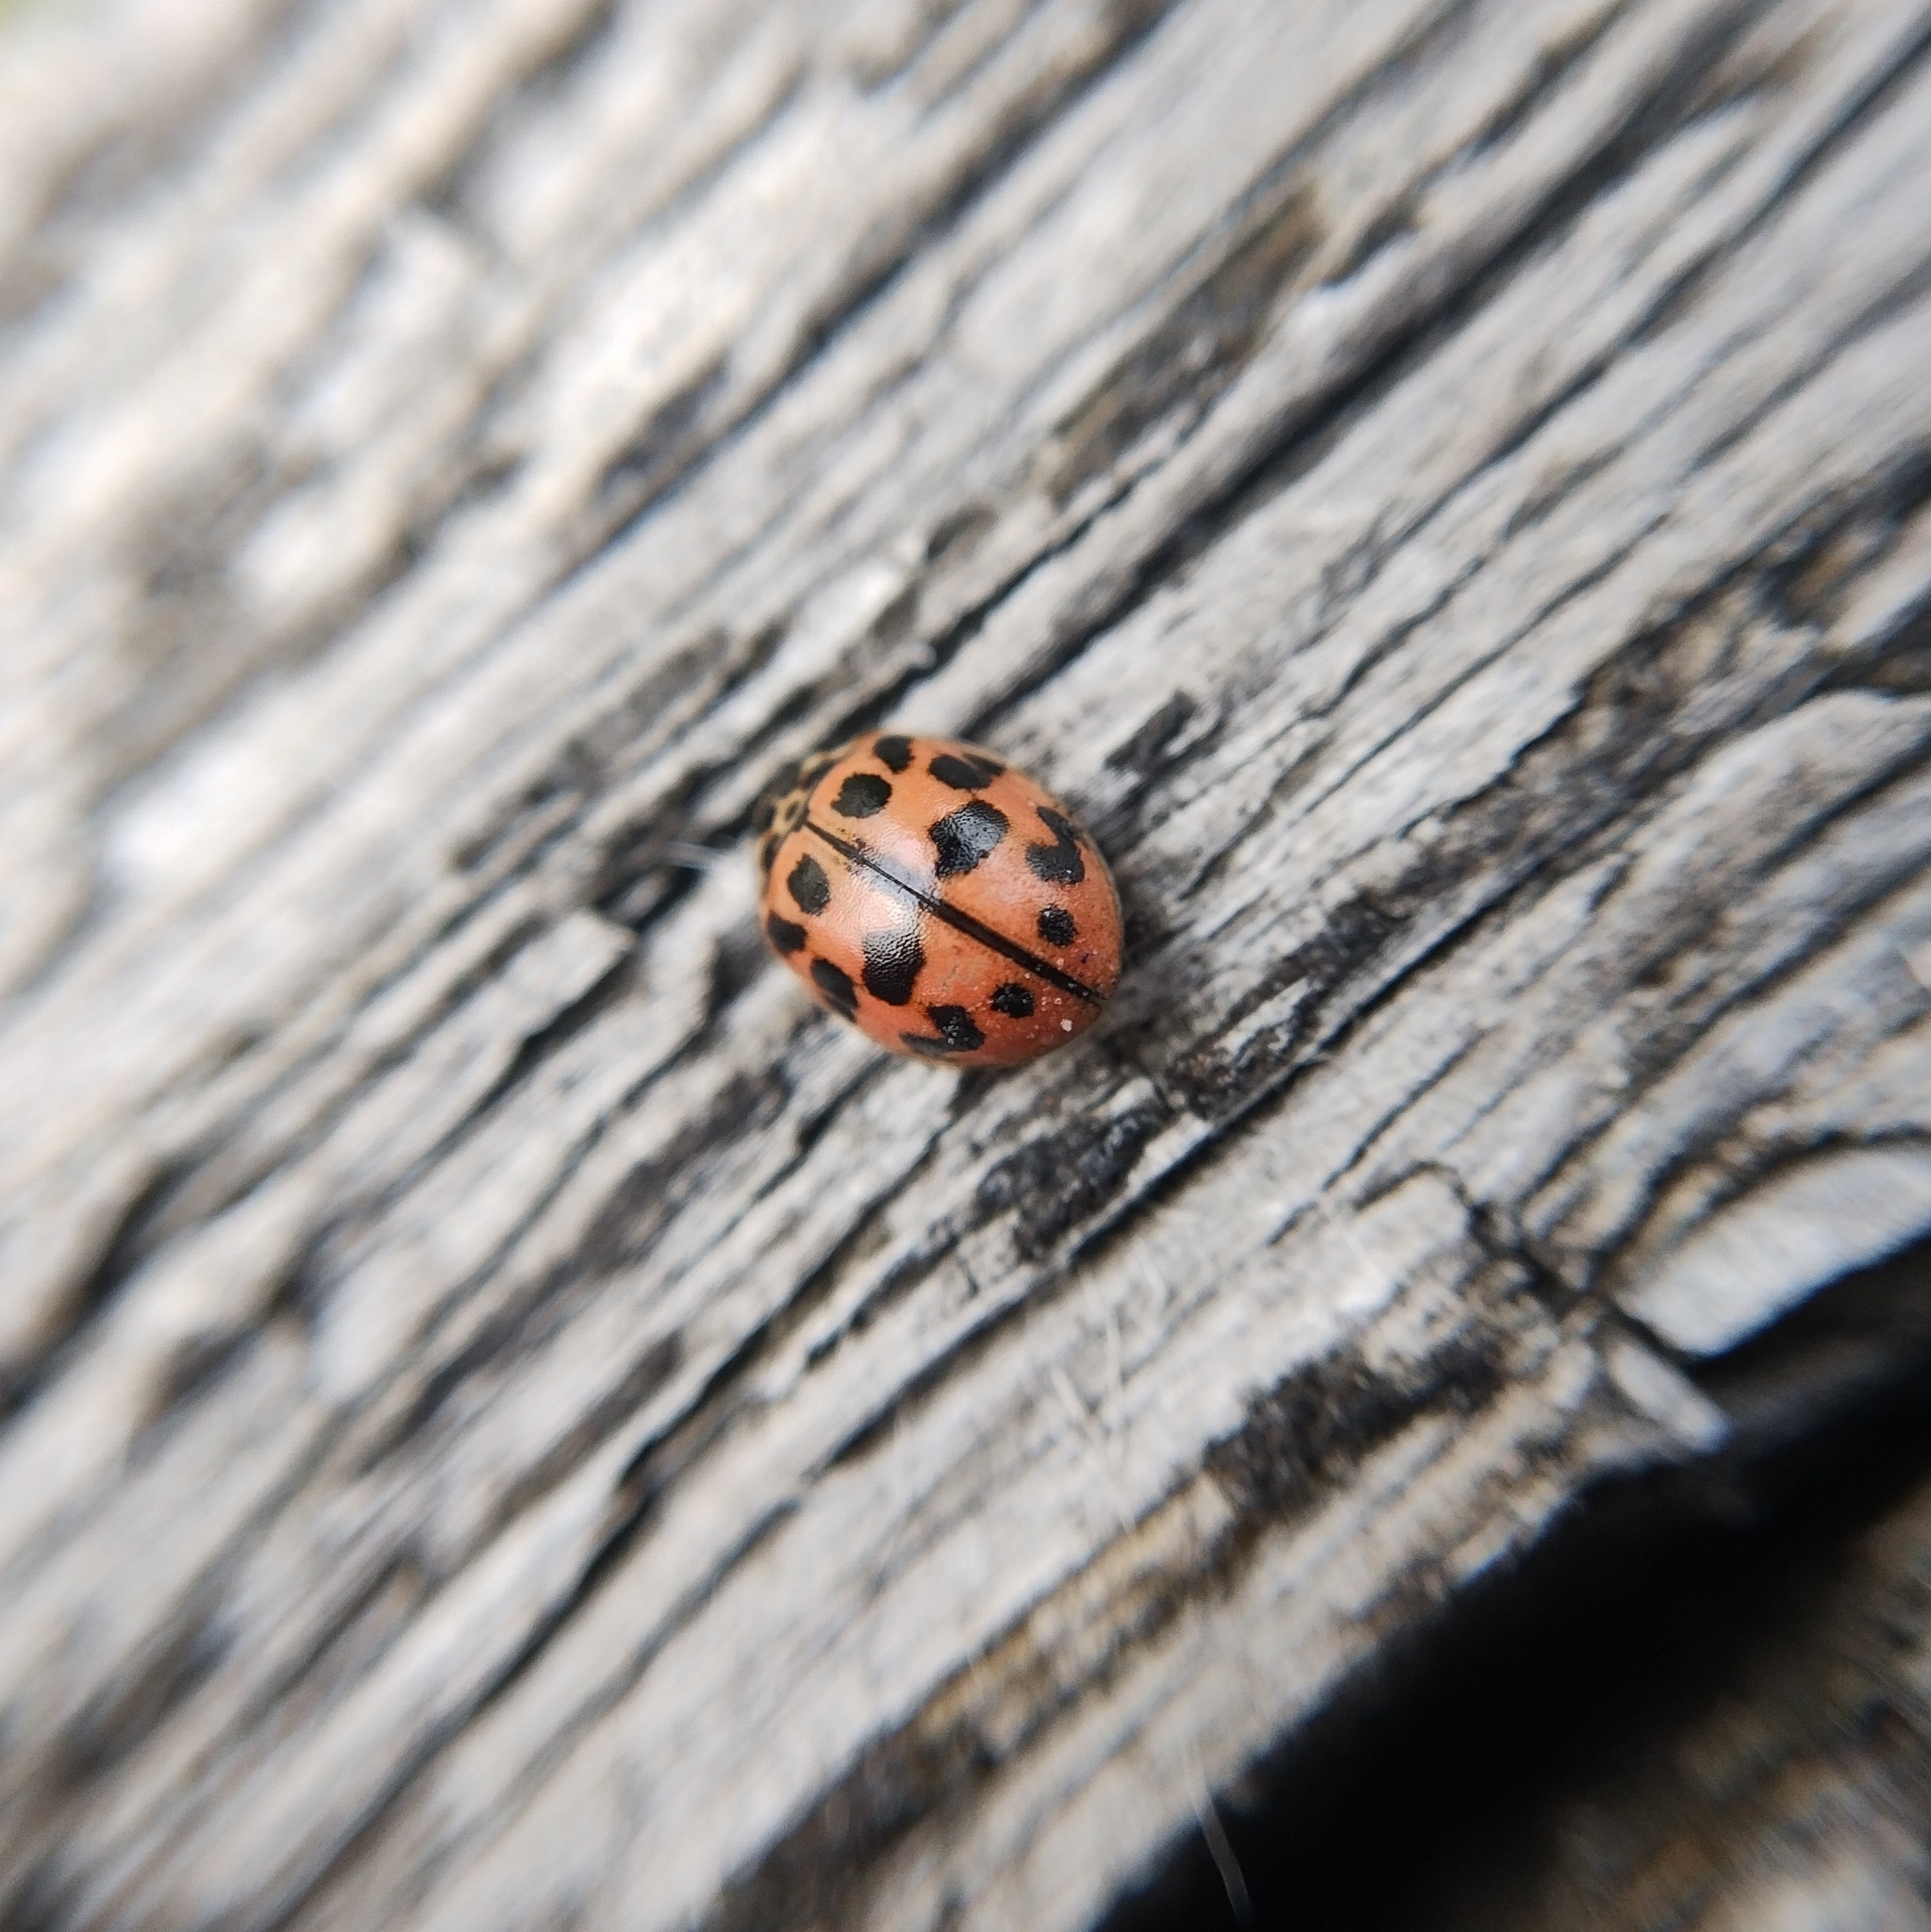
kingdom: Animalia
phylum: Arthropoda
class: Insecta
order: Coleoptera
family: Coccinellidae
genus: Oenopia
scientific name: Oenopia conglobata
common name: Ladybird beetle
